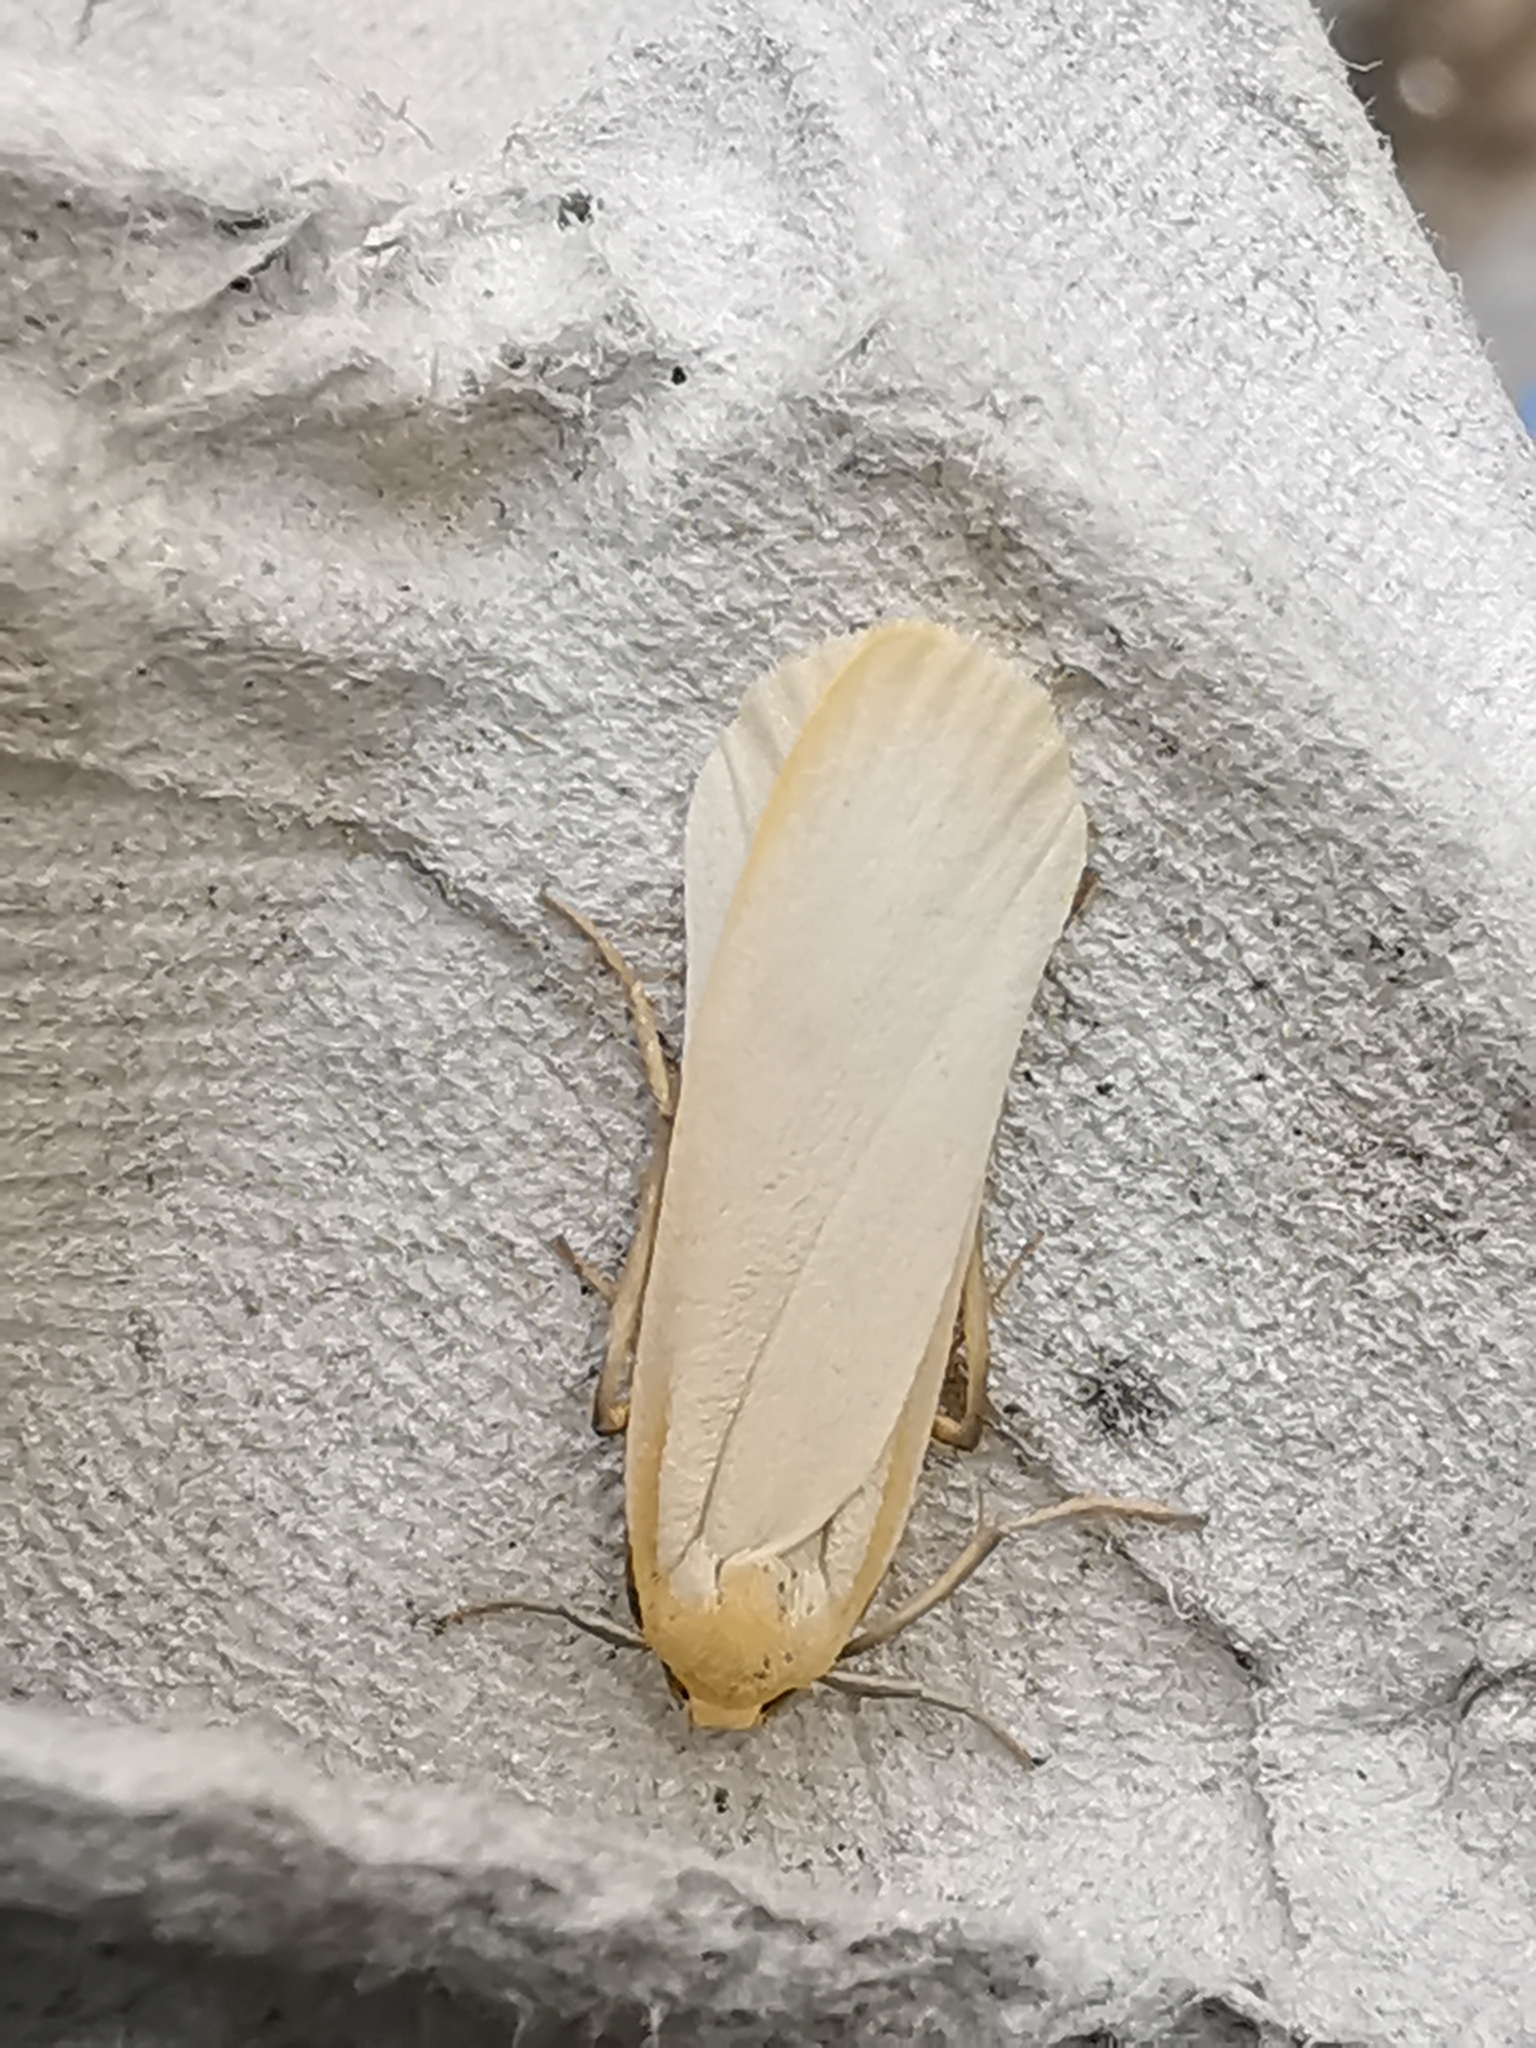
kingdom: Animalia
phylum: Arthropoda
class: Insecta
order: Lepidoptera
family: Erebidae
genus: Katha
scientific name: Katha depressa
